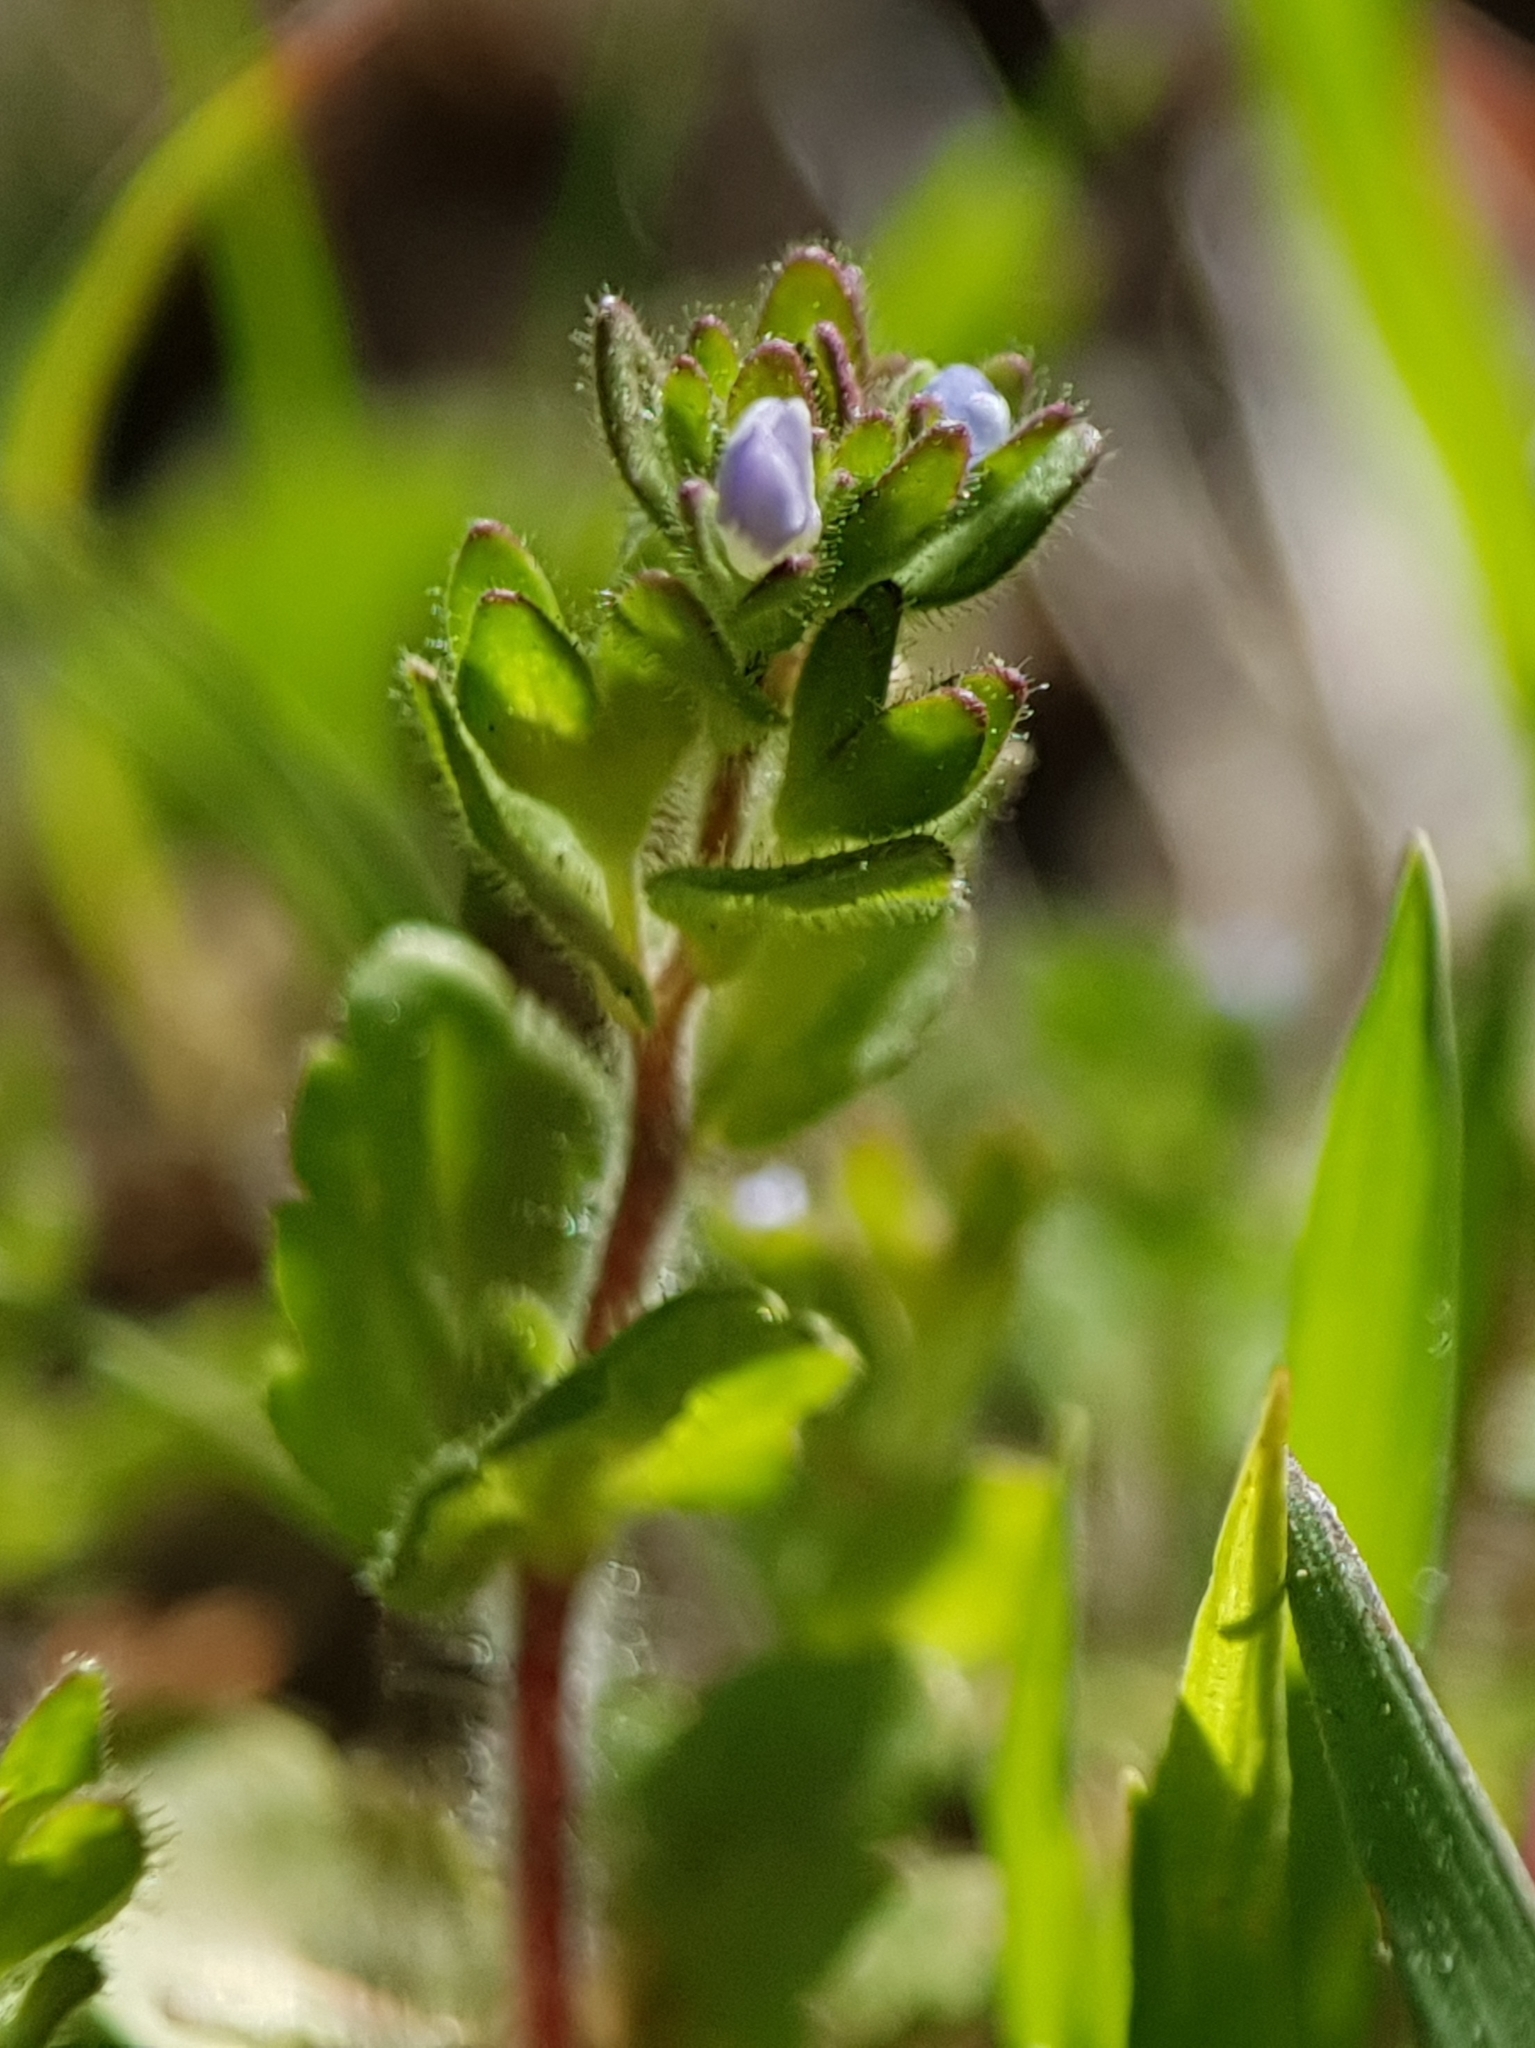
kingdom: Plantae
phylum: Tracheophyta
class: Magnoliopsida
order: Lamiales
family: Plantaginaceae
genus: Veronica
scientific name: Veronica arvensis
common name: Corn speedwell
